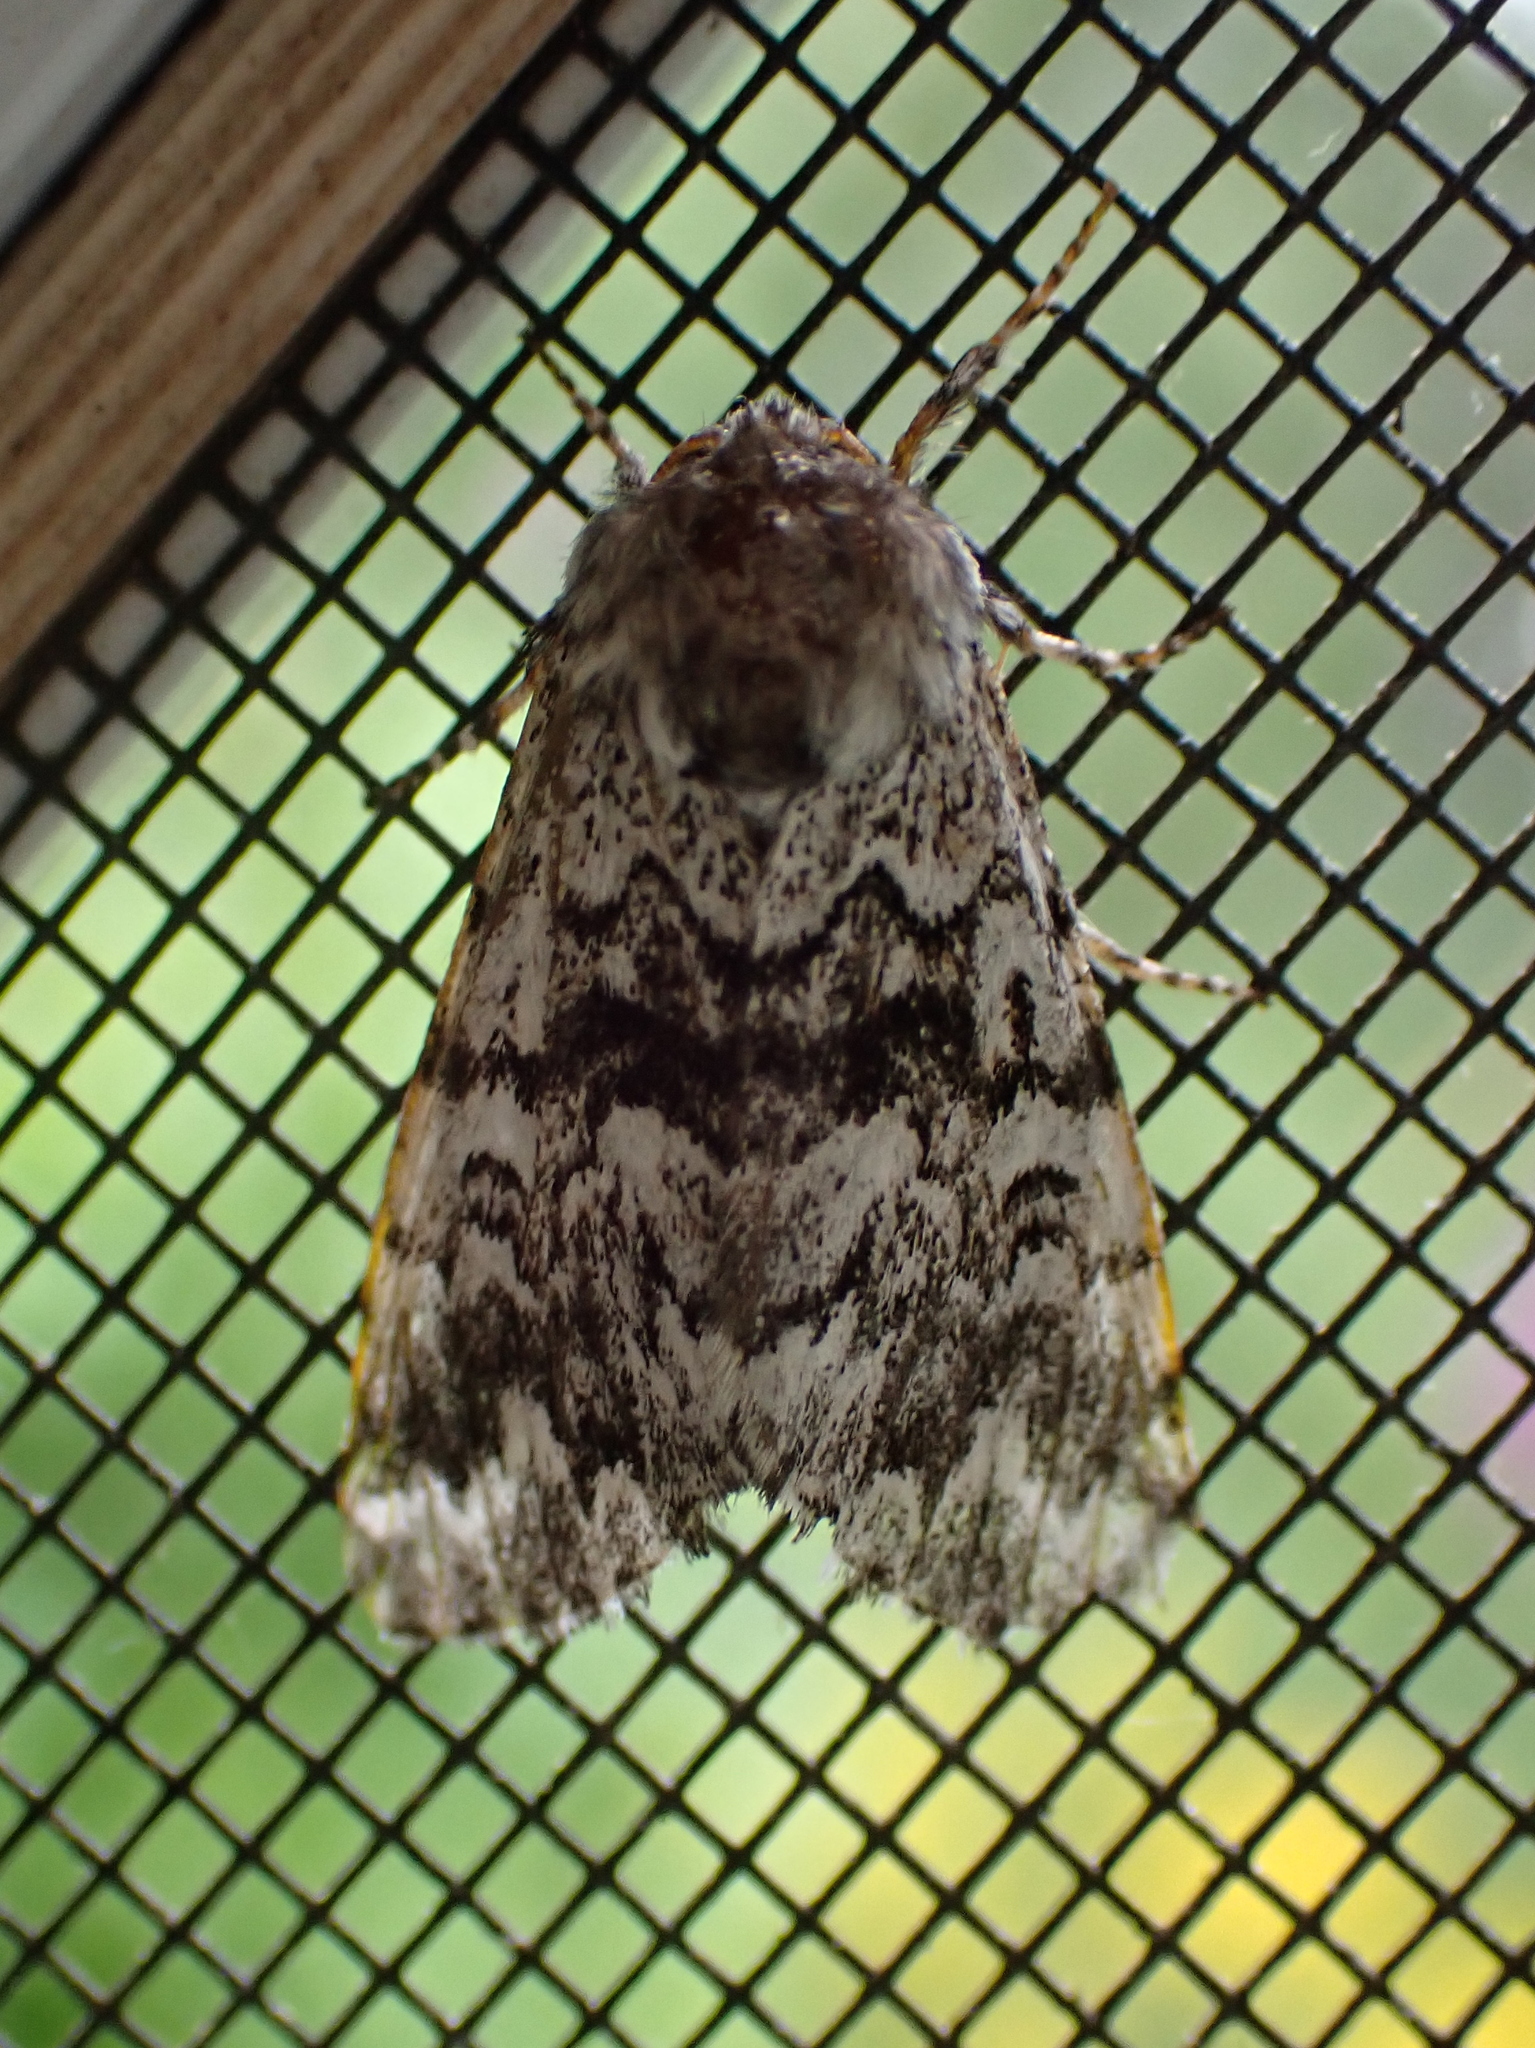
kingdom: Animalia
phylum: Arthropoda
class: Insecta
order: Lepidoptera
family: Noctuidae
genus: Panthea
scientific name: Panthea acronyctoides
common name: Black zigzag moth
